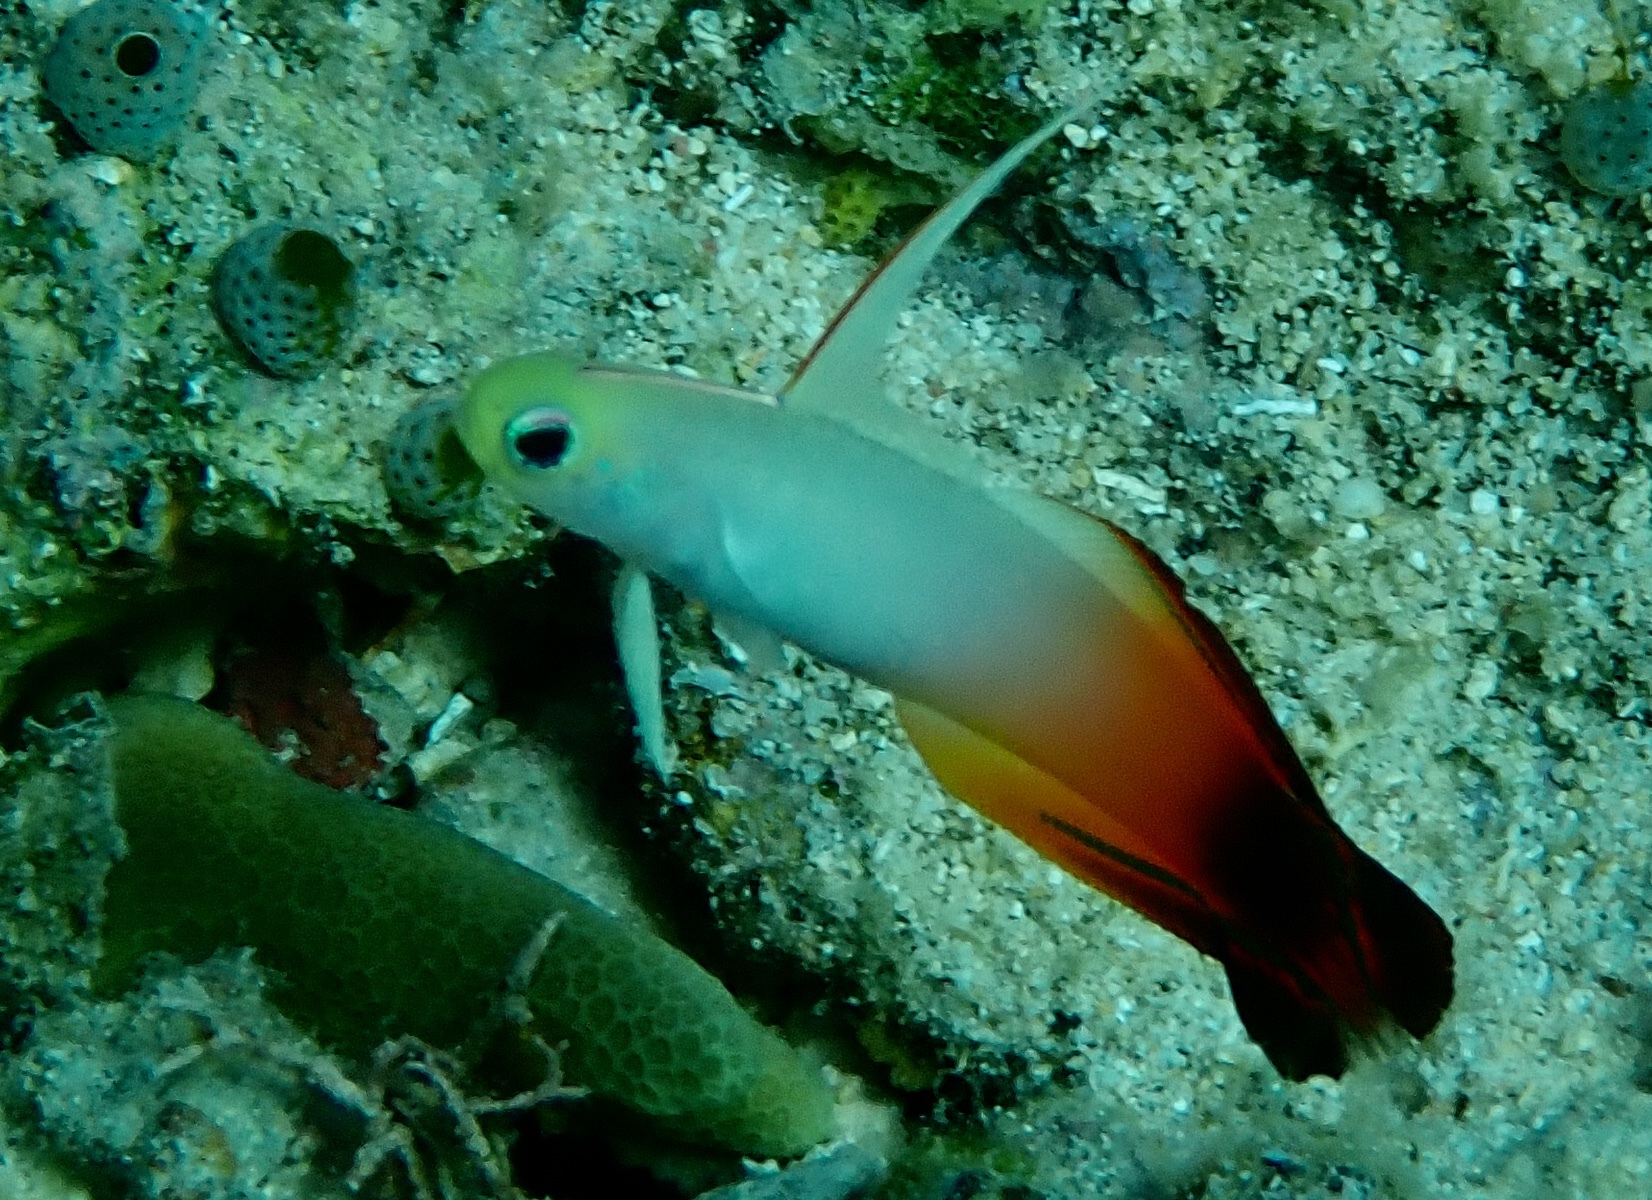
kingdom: Animalia
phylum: Chordata
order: Perciformes
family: Microdesmidae
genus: Nemateleotris
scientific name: Nemateleotris magnifica
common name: Fire goby
